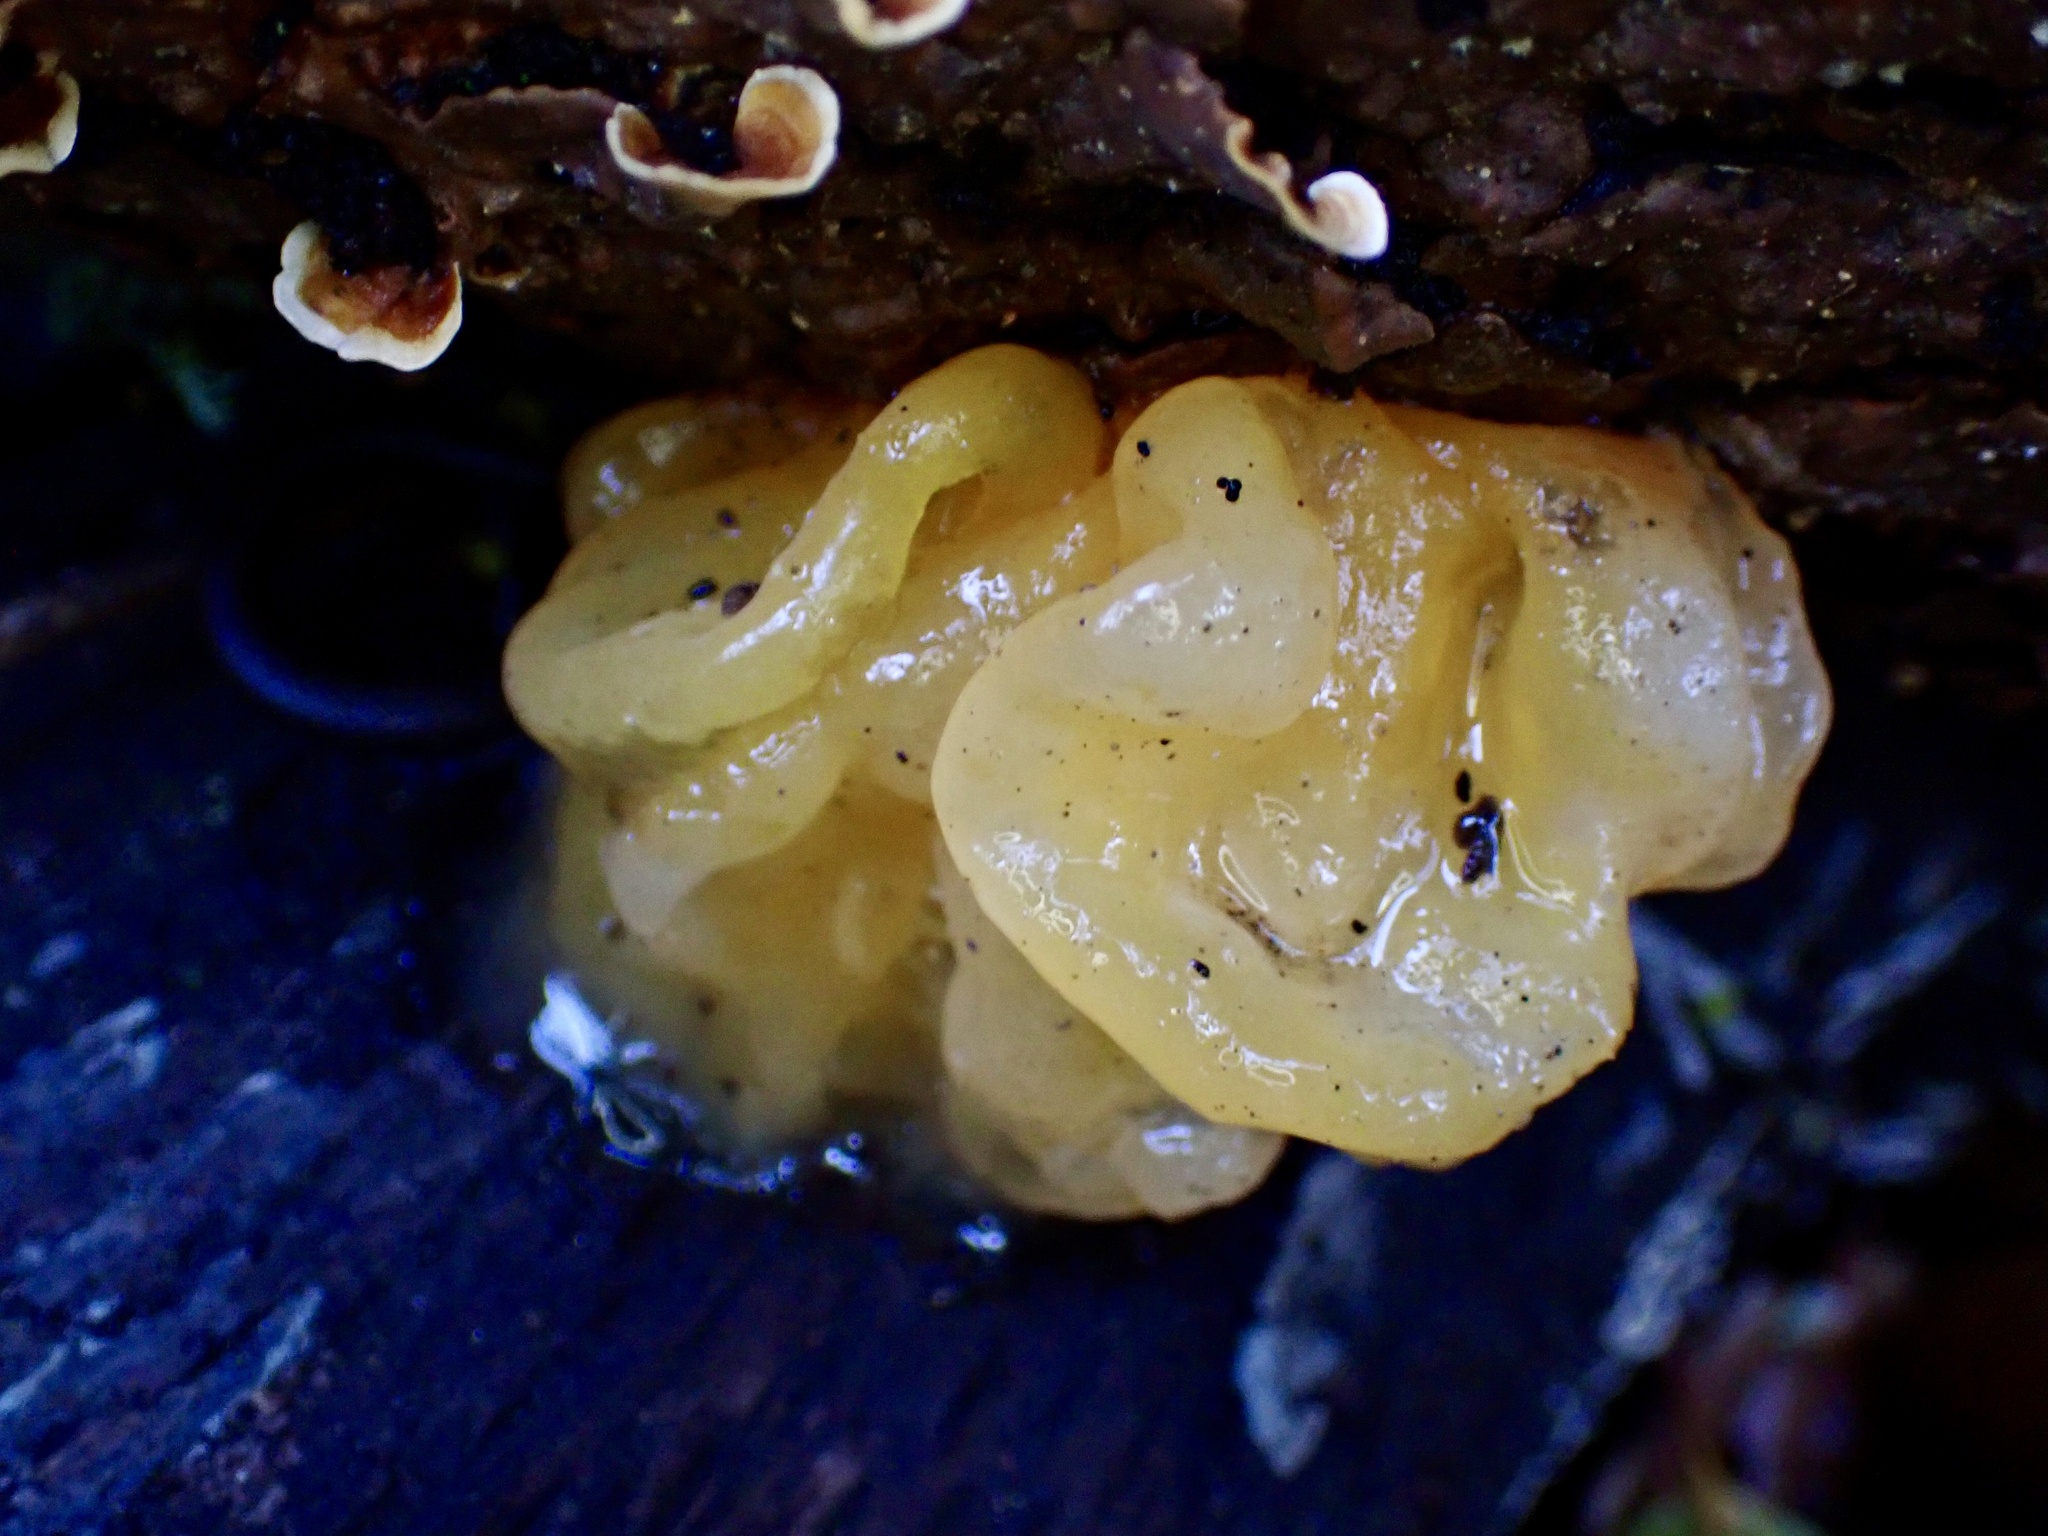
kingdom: Fungi
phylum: Basidiomycota
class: Tremellomycetes
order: Tremellales
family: Naemateliaceae
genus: Naematelia
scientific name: Naematelia aurantia
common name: Golden ear
